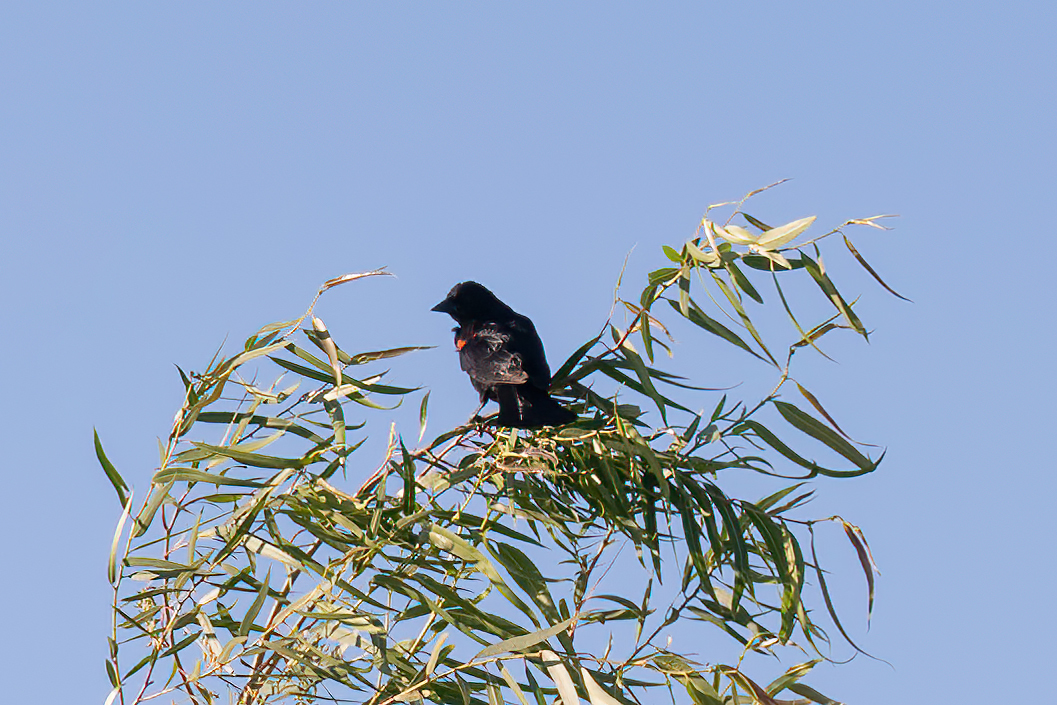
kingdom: Animalia
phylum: Chordata
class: Aves
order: Passeriformes
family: Icteridae
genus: Agelaius
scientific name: Agelaius phoeniceus
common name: Red-winged blackbird
